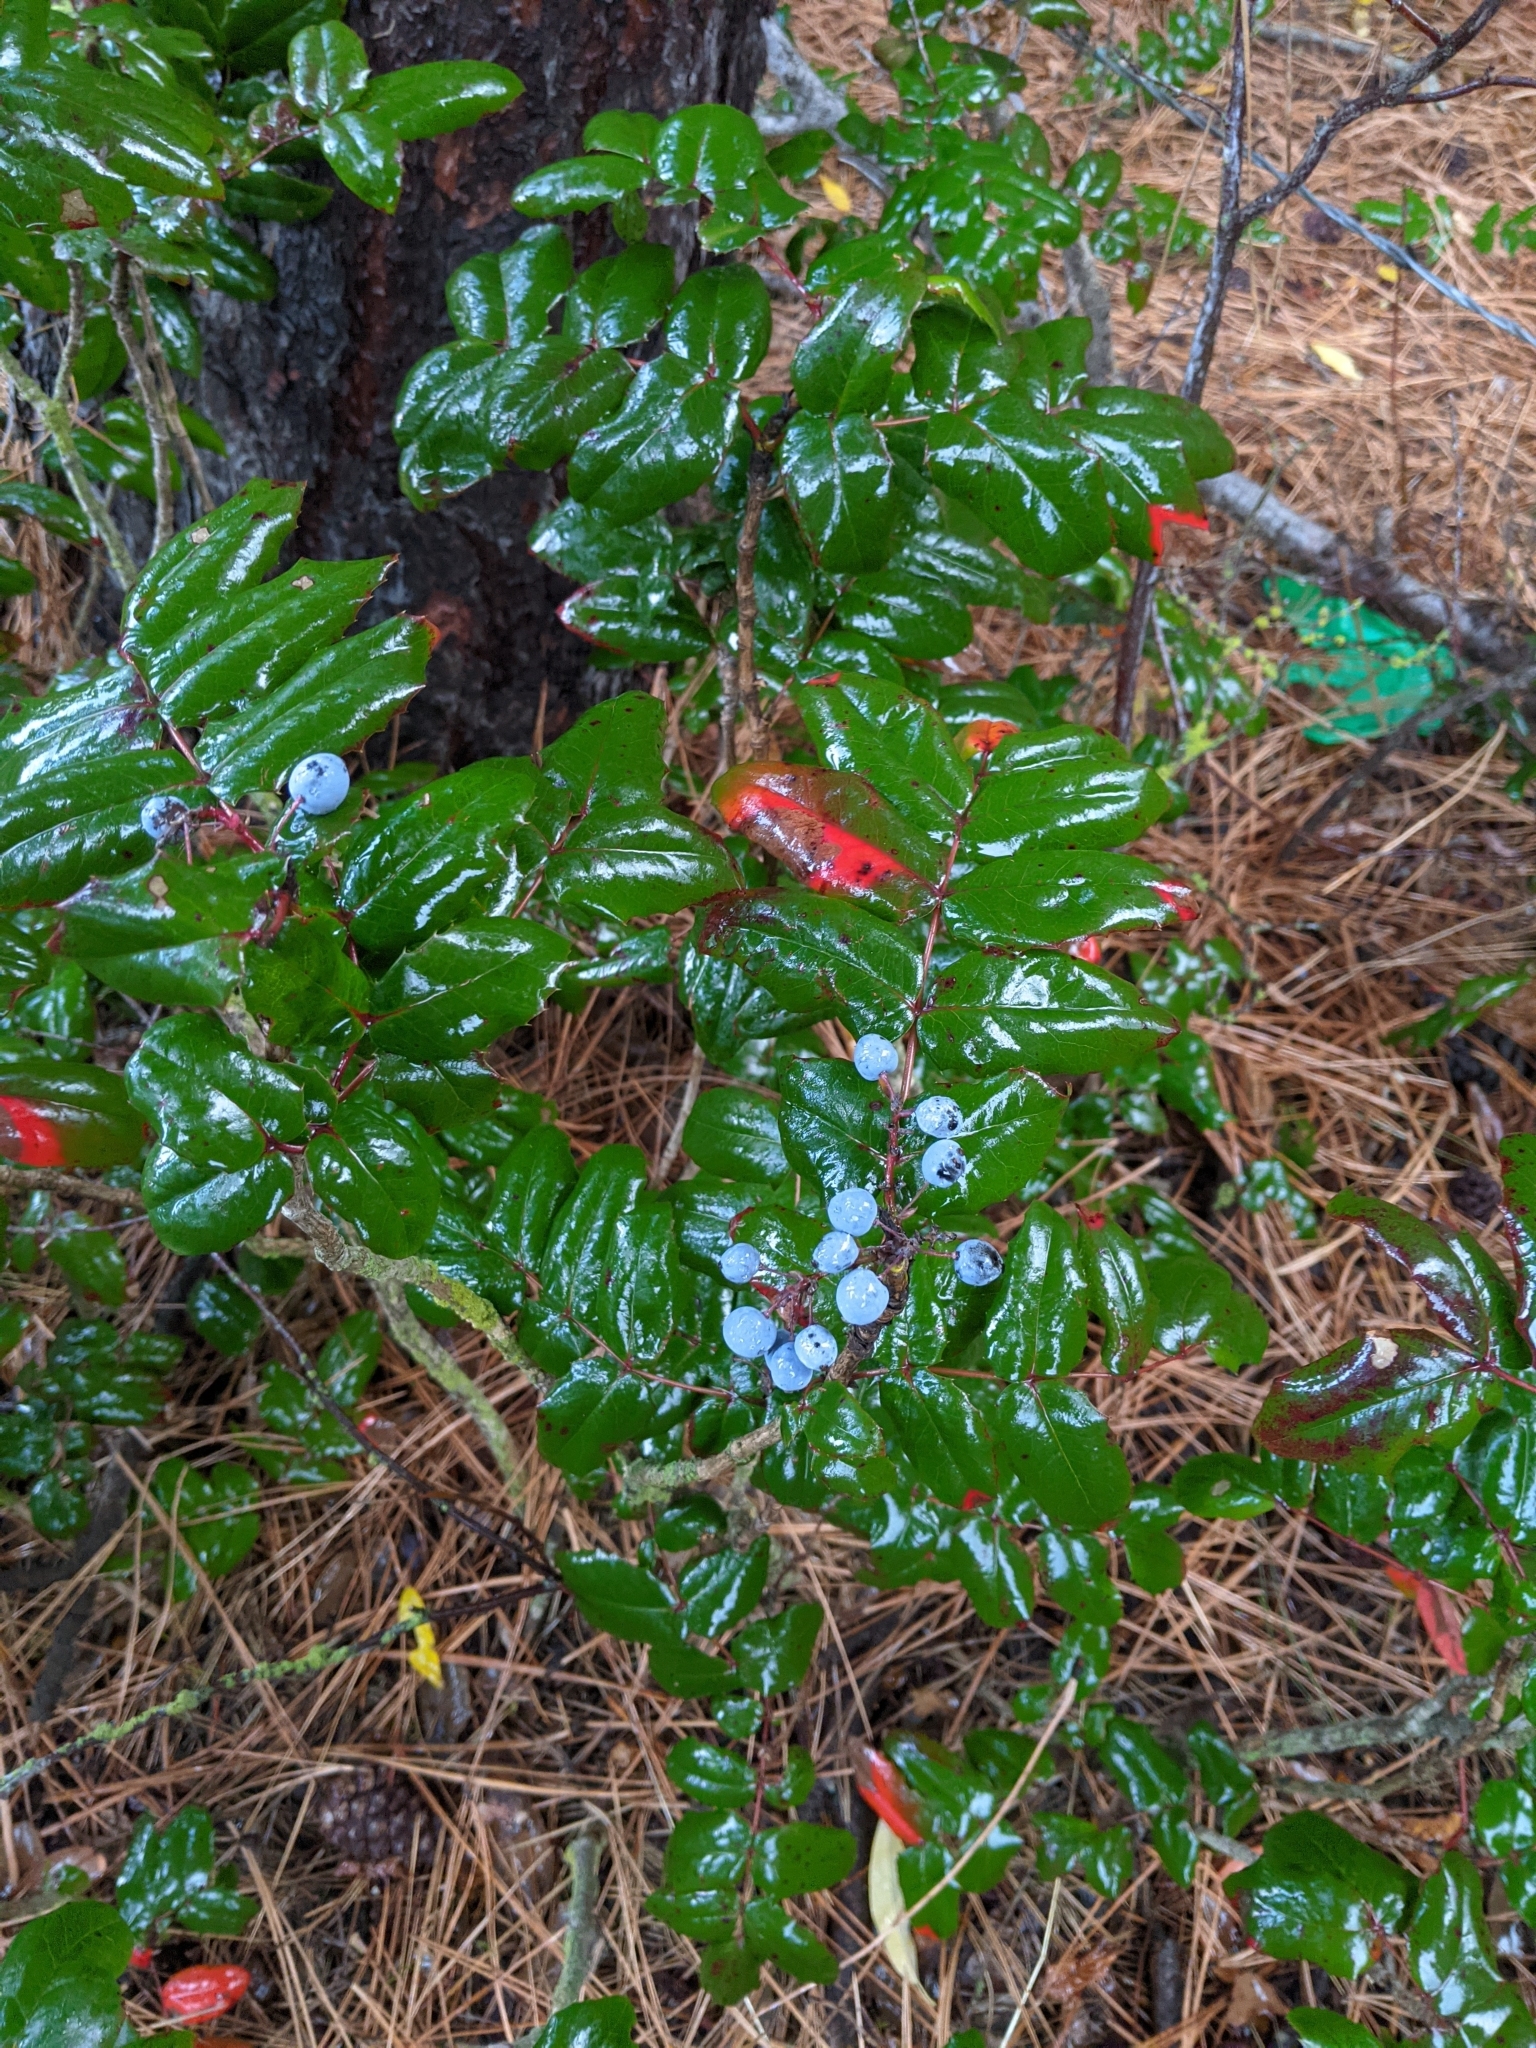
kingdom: Plantae
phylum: Tracheophyta
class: Magnoliopsida
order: Ranunculales
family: Berberidaceae
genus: Mahonia
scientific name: Mahonia aquifolium
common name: Oregon-grape
